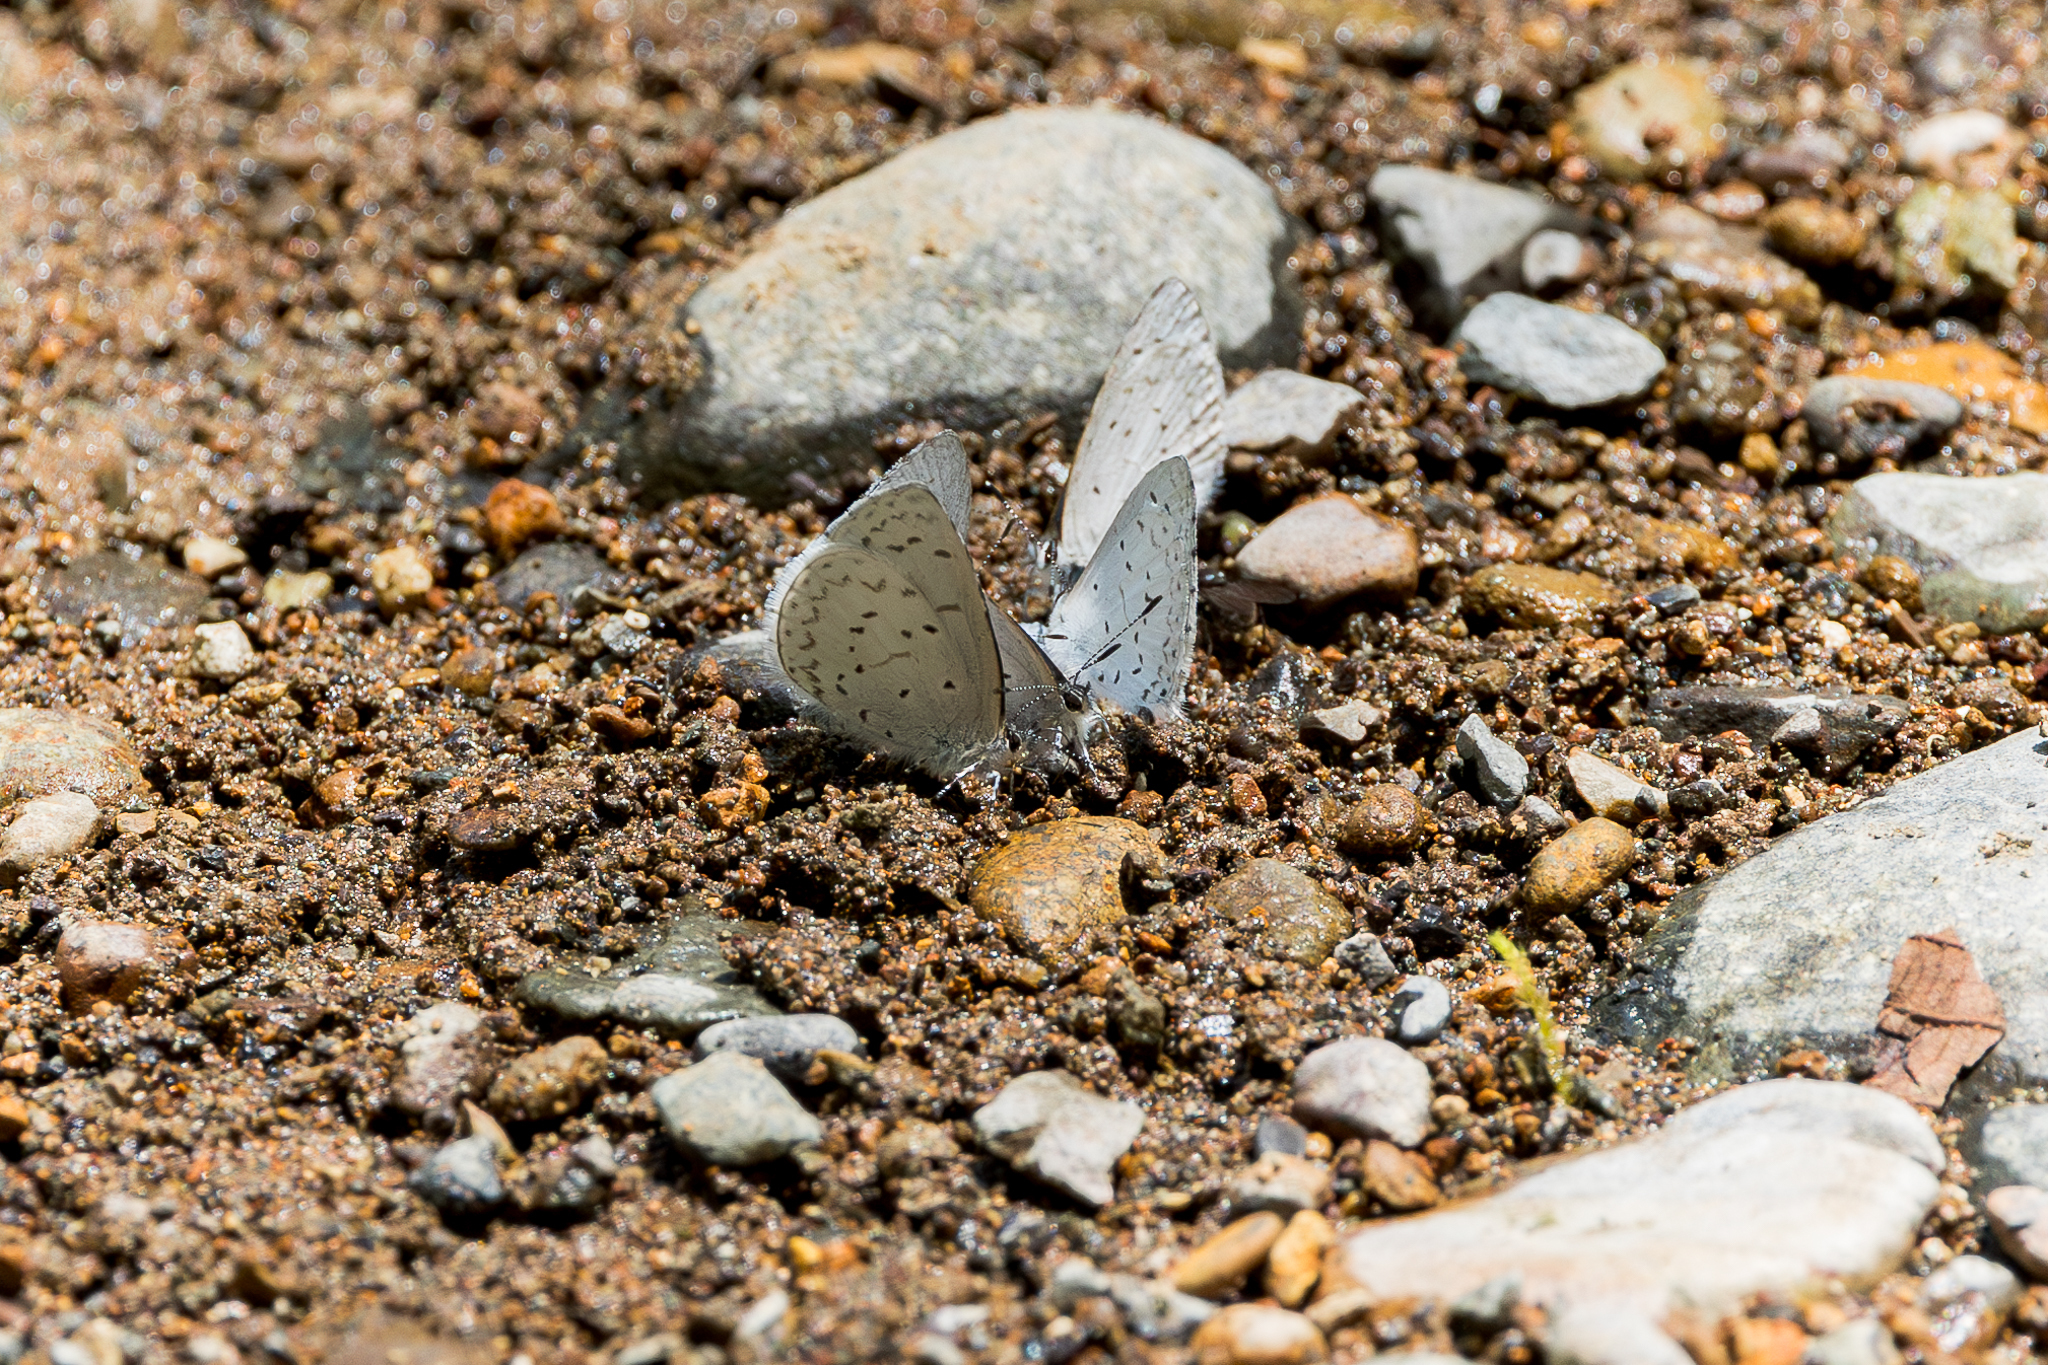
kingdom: Animalia
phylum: Arthropoda
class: Insecta
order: Lepidoptera
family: Lycaenidae
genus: Celastrina
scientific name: Celastrina ladon
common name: Spring azure
